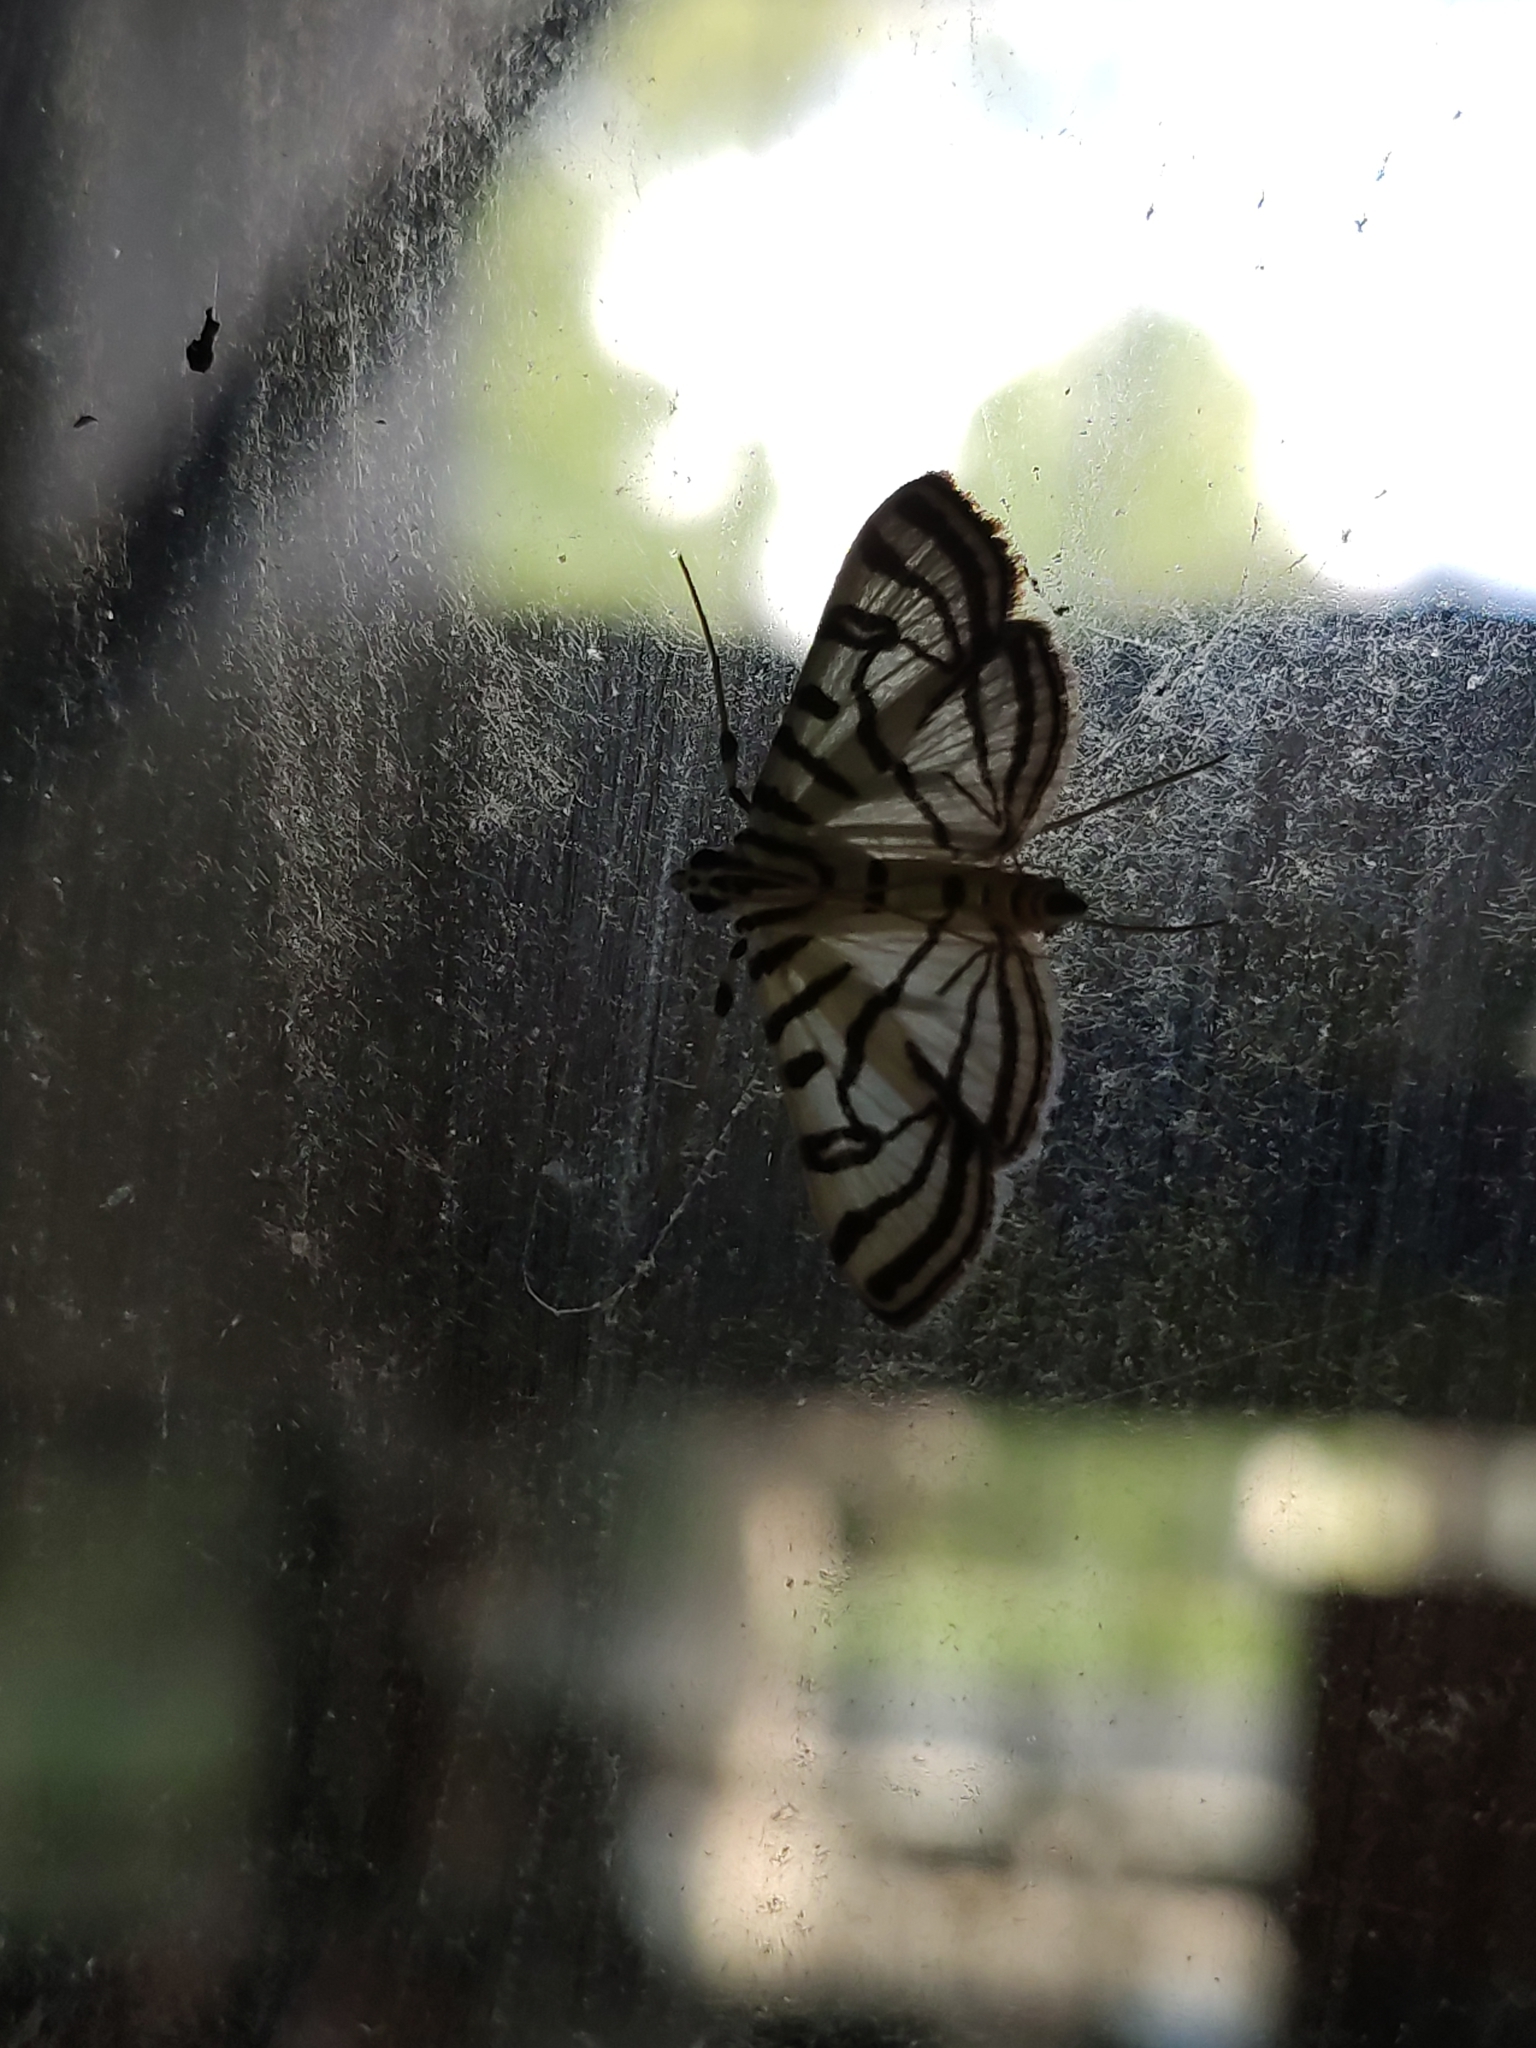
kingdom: Animalia
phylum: Arthropoda
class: Insecta
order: Lepidoptera
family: Crambidae
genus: Conchylodes
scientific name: Conchylodes ovulalis
